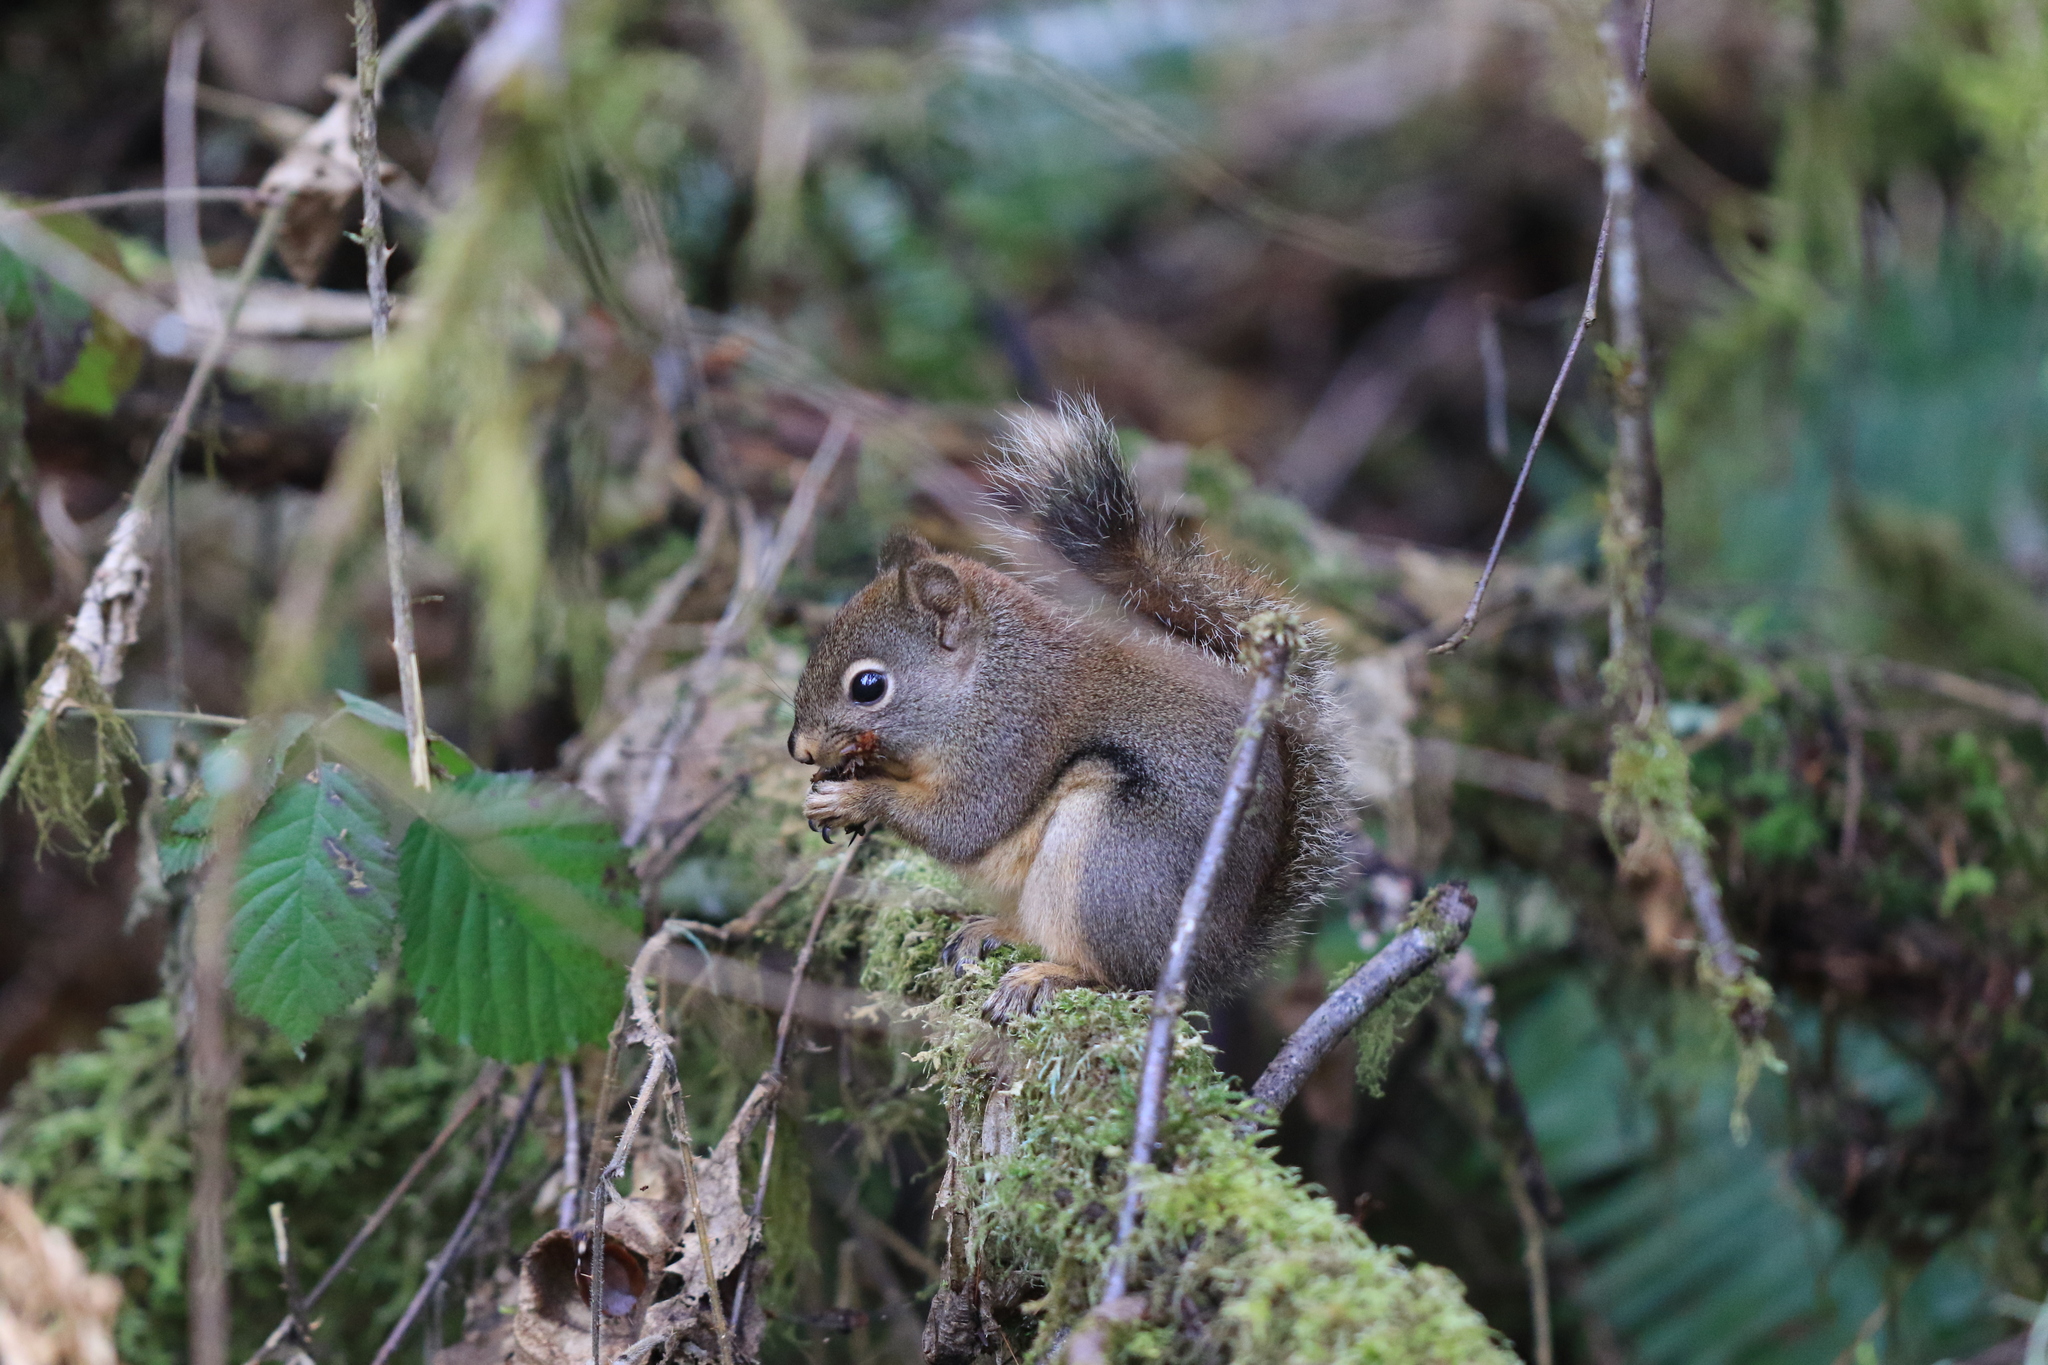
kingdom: Animalia
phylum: Chordata
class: Mammalia
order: Rodentia
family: Sciuridae
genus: Tamiasciurus
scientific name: Tamiasciurus douglasii
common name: Douglas's squirrel
